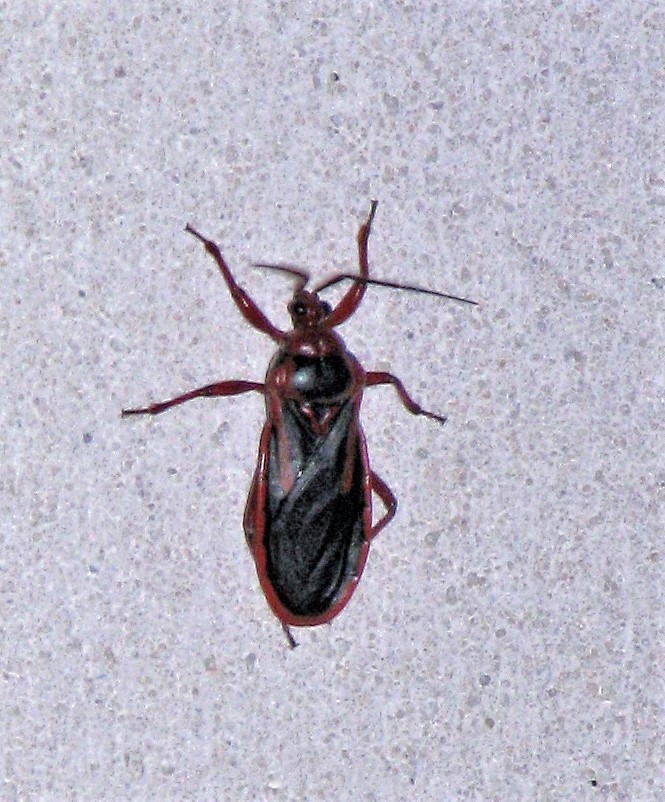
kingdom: Animalia
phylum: Arthropoda
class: Insecta
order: Hemiptera
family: Reduviidae
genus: Brontostoma
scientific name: Brontostoma discus
